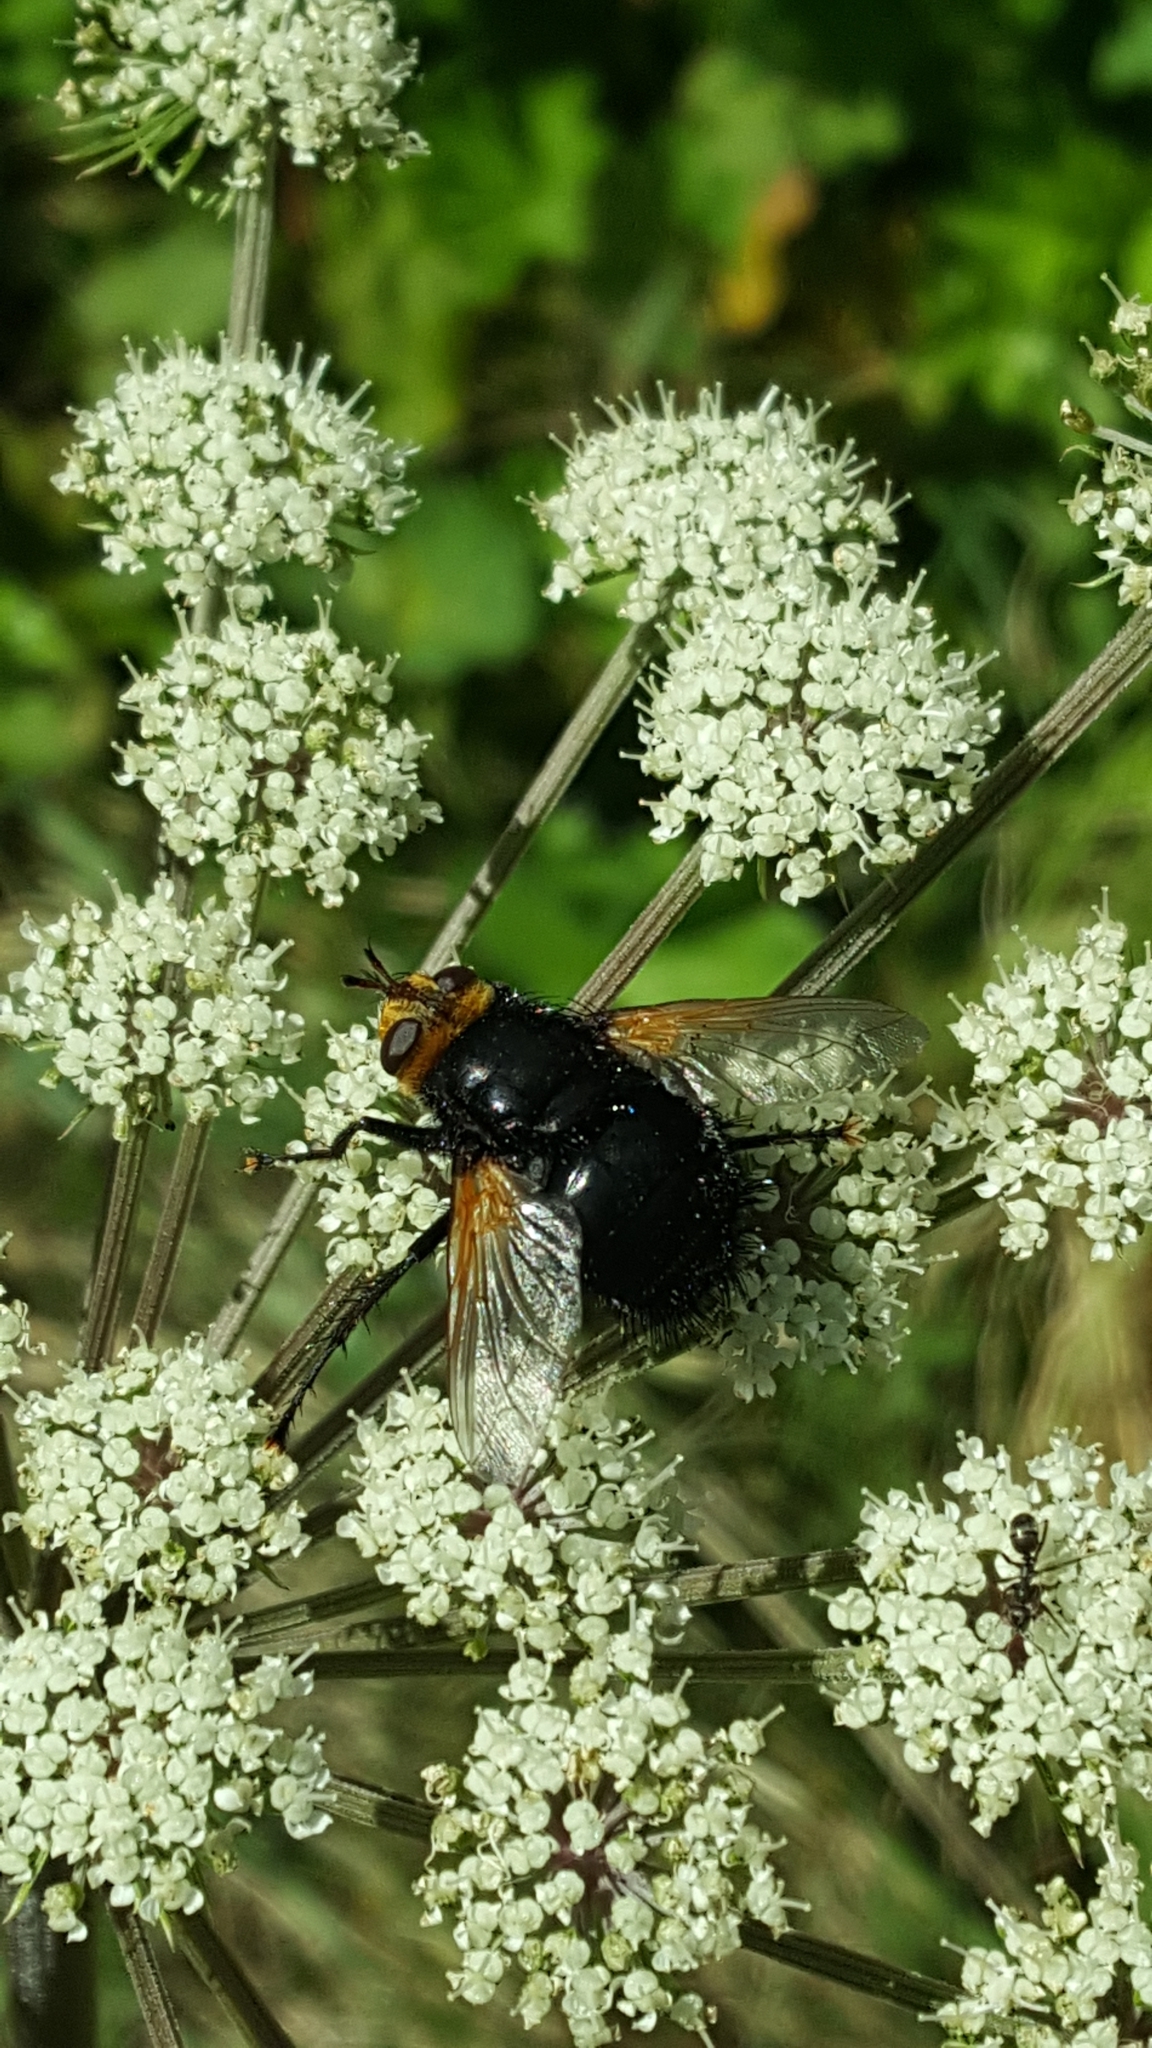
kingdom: Animalia
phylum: Arthropoda
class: Insecta
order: Diptera
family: Tachinidae
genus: Tachina
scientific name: Tachina grossa
